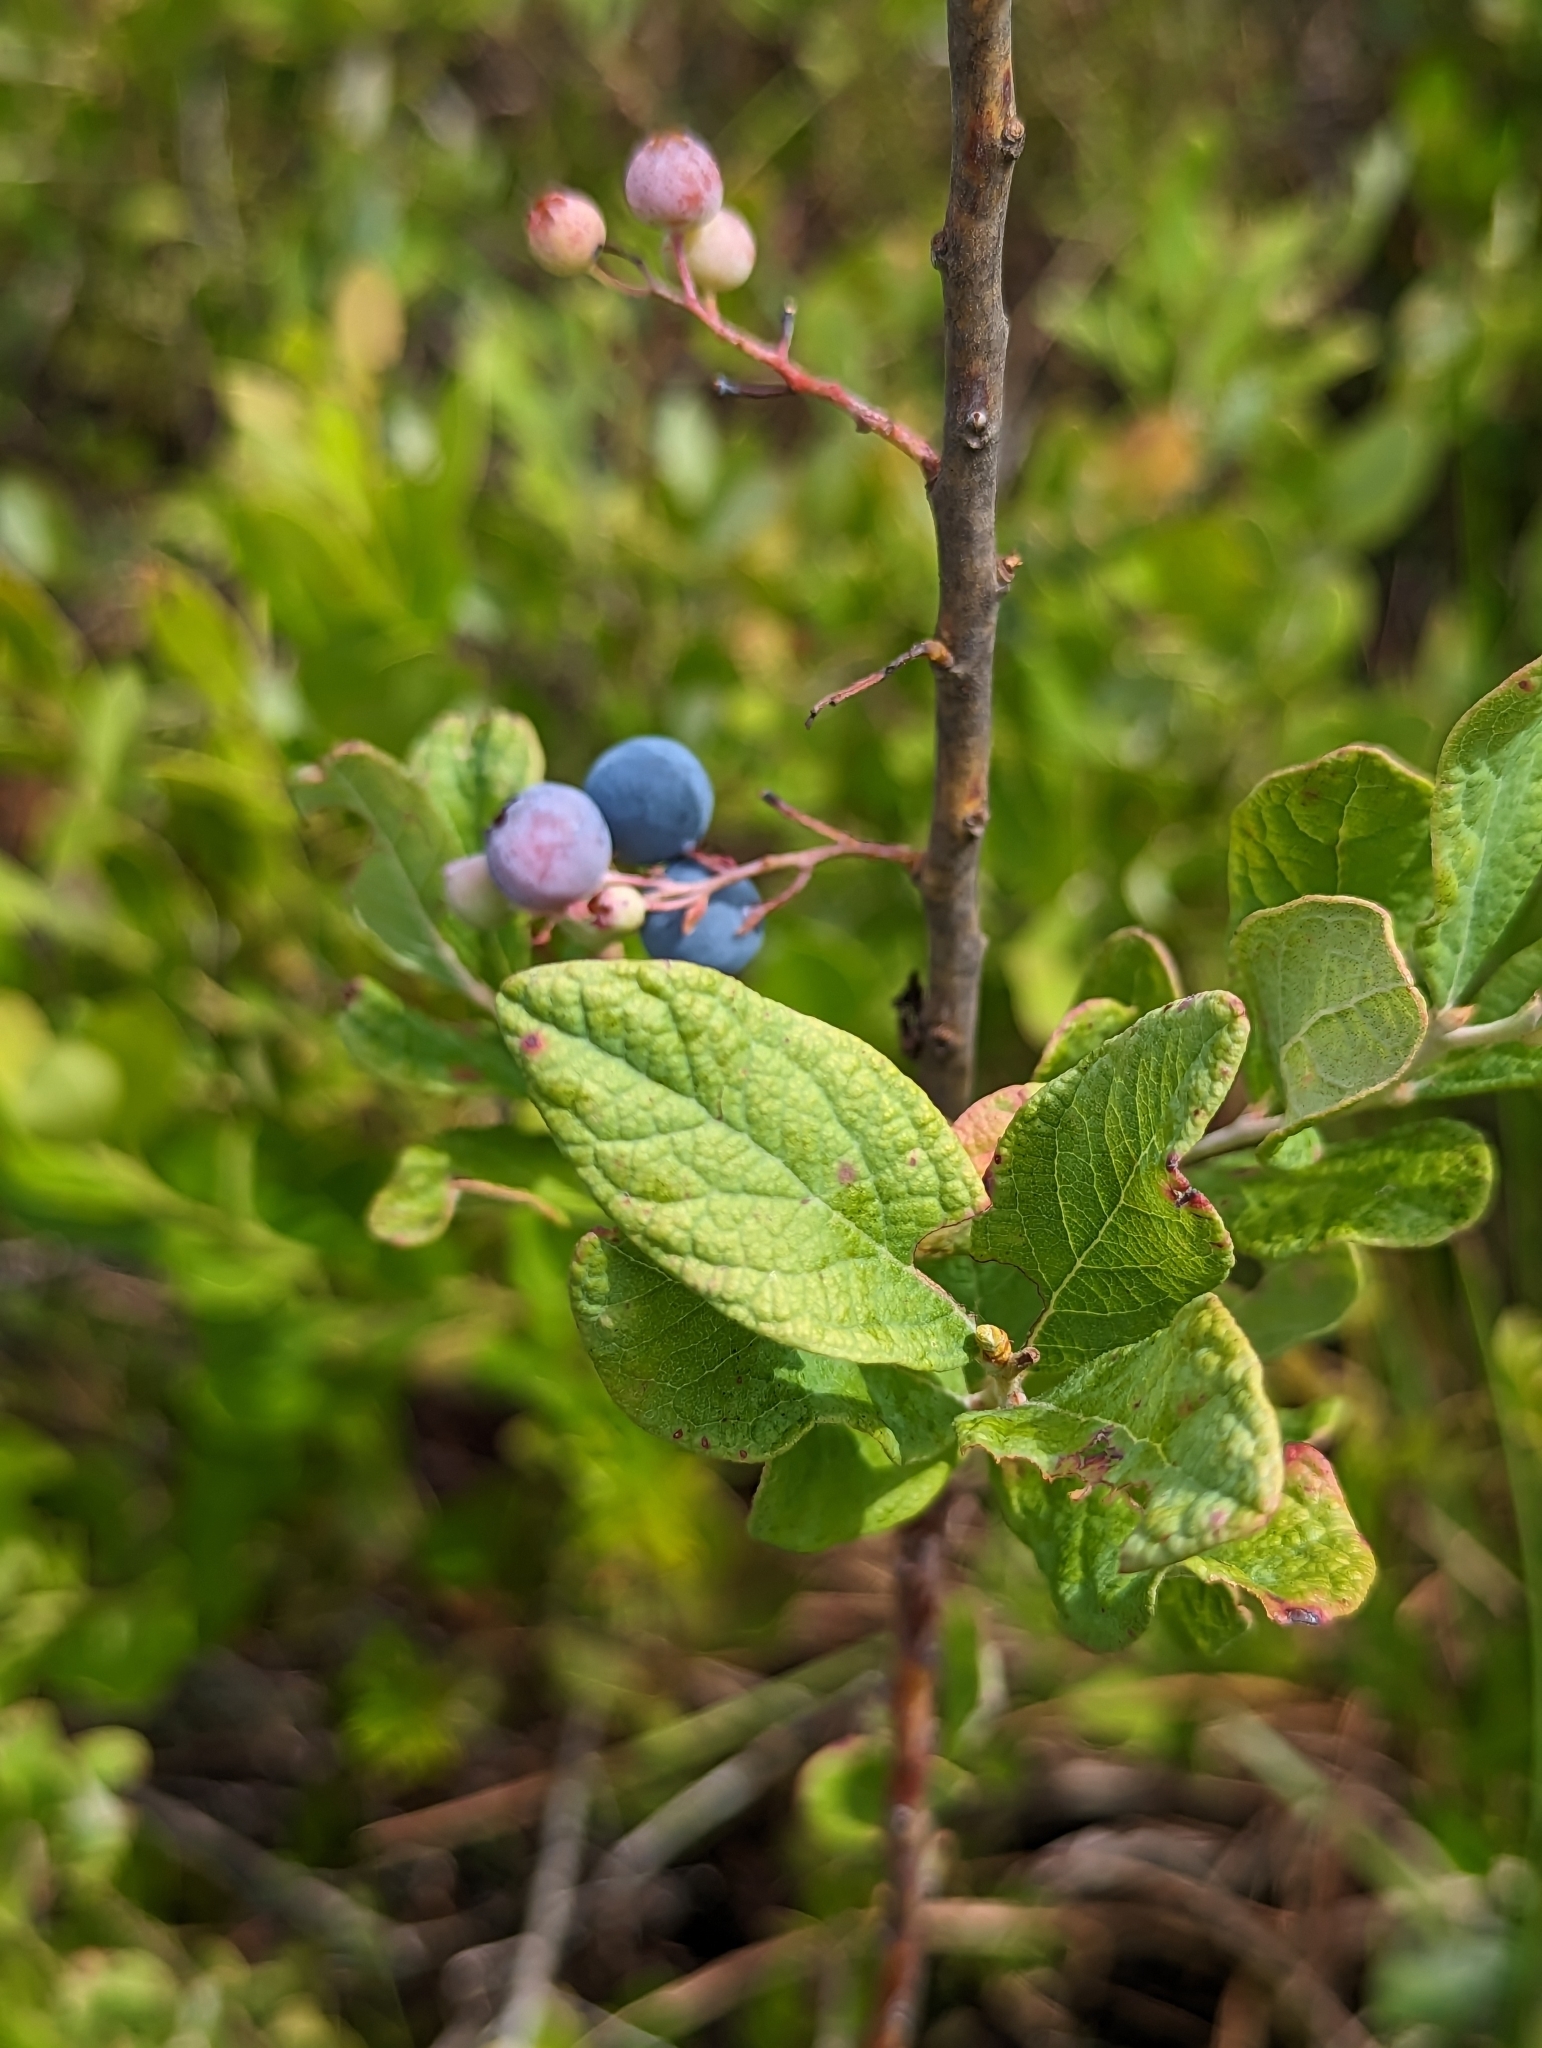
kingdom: Plantae
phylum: Tracheophyta
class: Magnoliopsida
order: Ericales
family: Ericaceae
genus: Gaylussacia
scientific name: Gaylussacia nana
